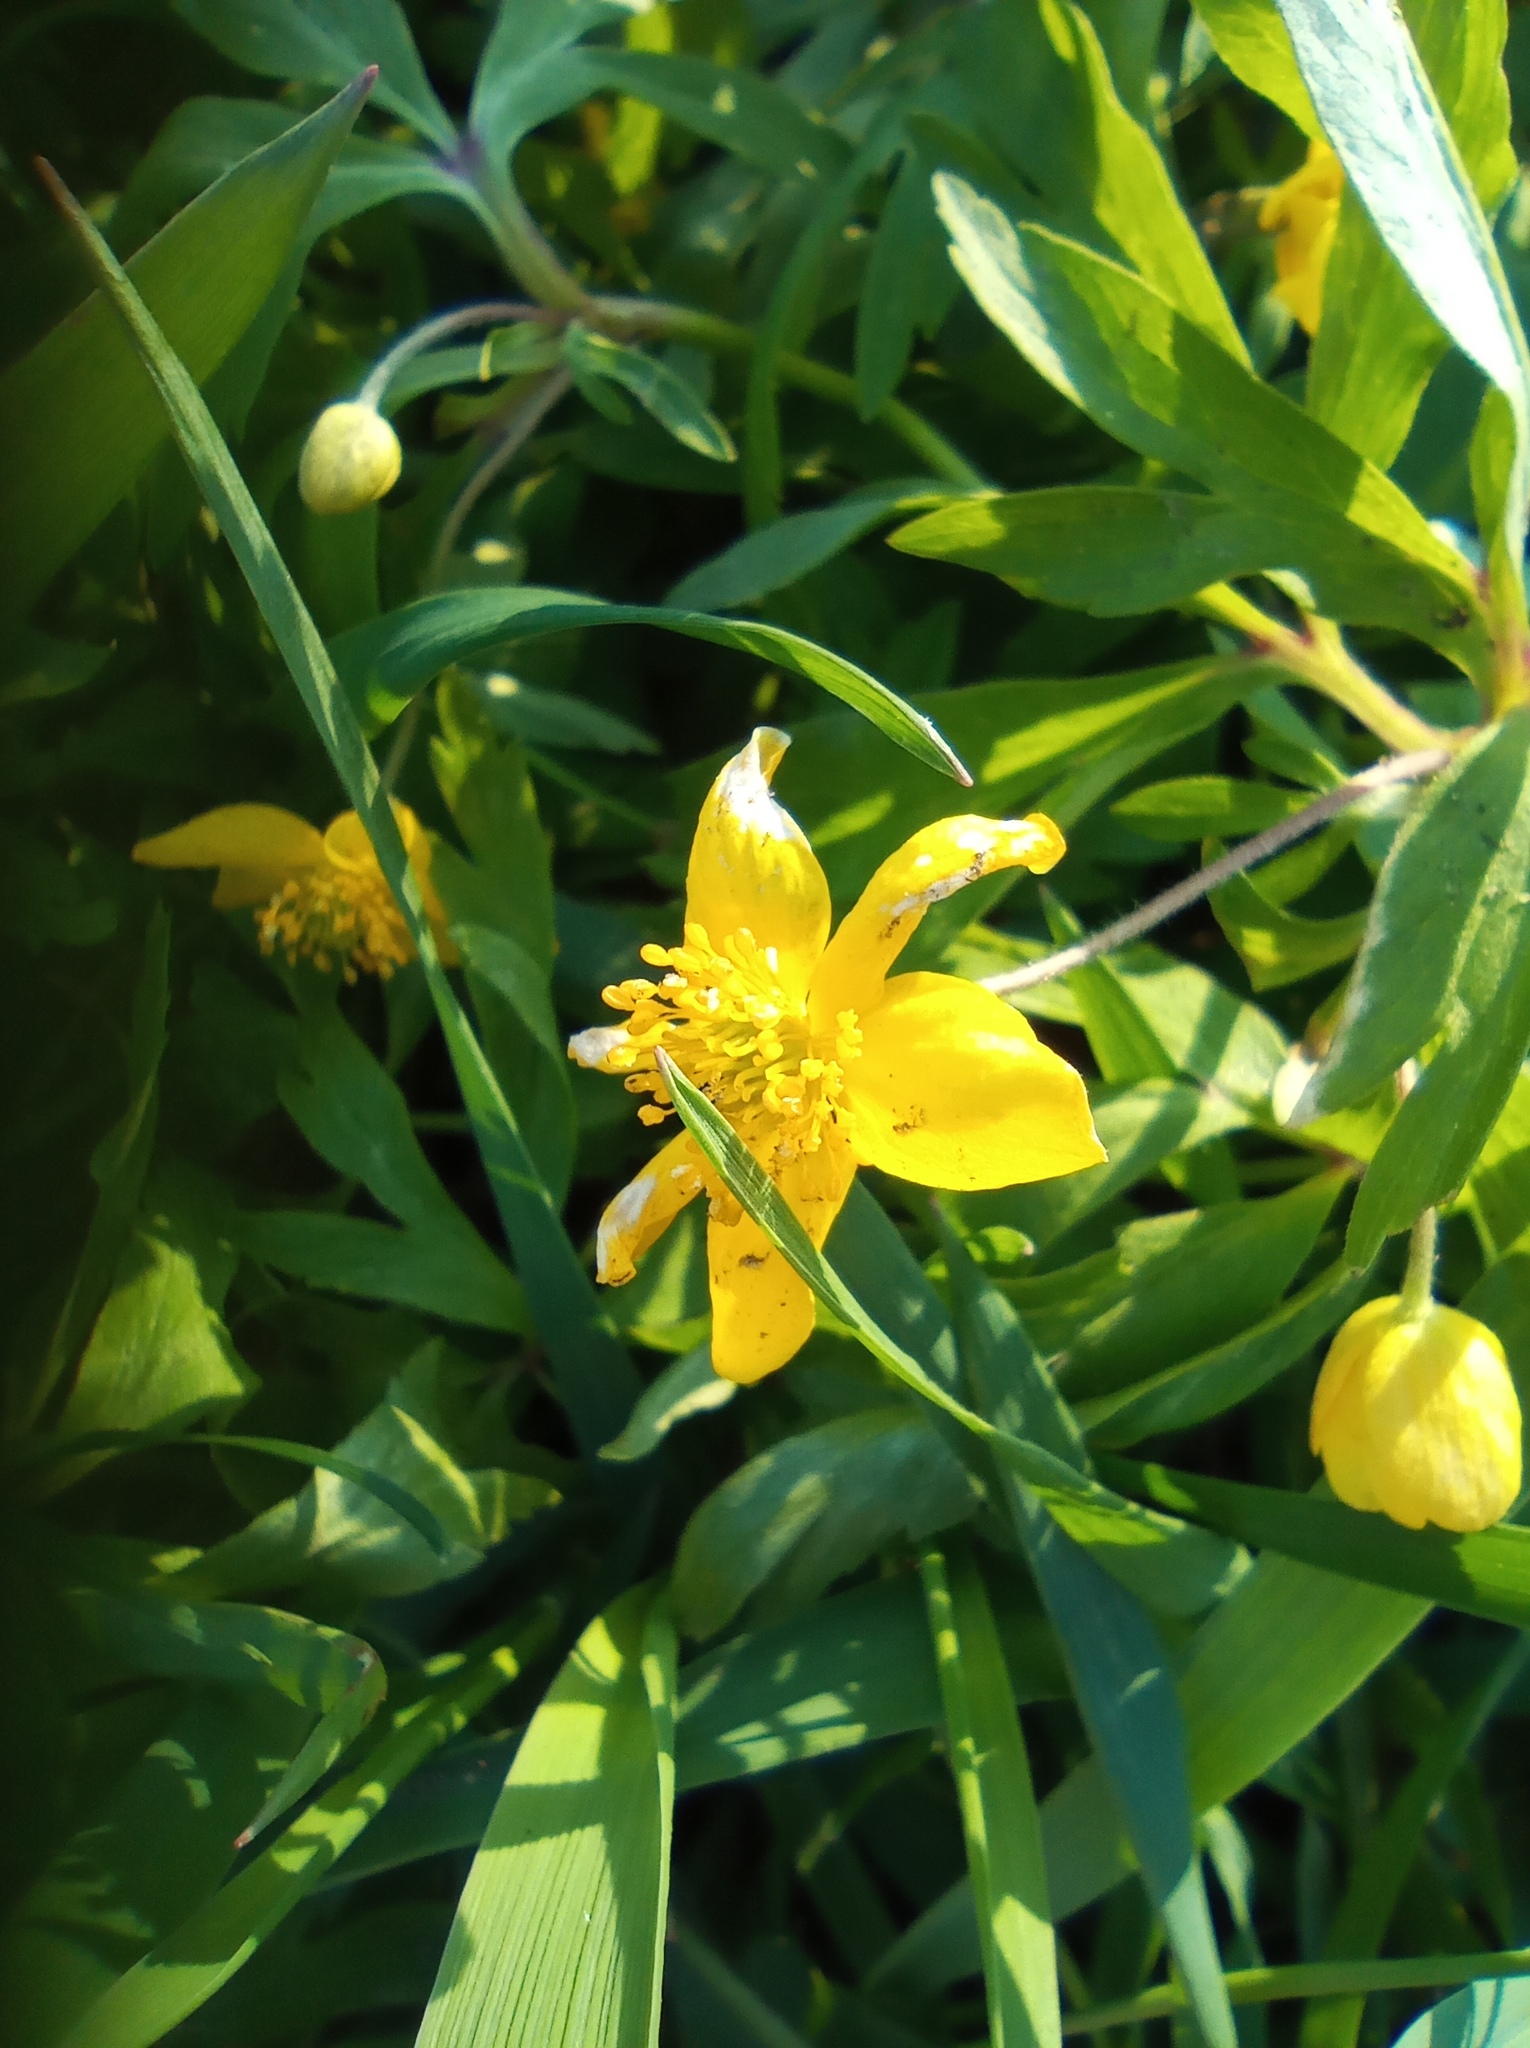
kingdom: Plantae
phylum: Tracheophyta
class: Magnoliopsida
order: Ranunculales
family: Ranunculaceae
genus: Anemone
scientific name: Anemone ranunculoides
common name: Yellow anemone
